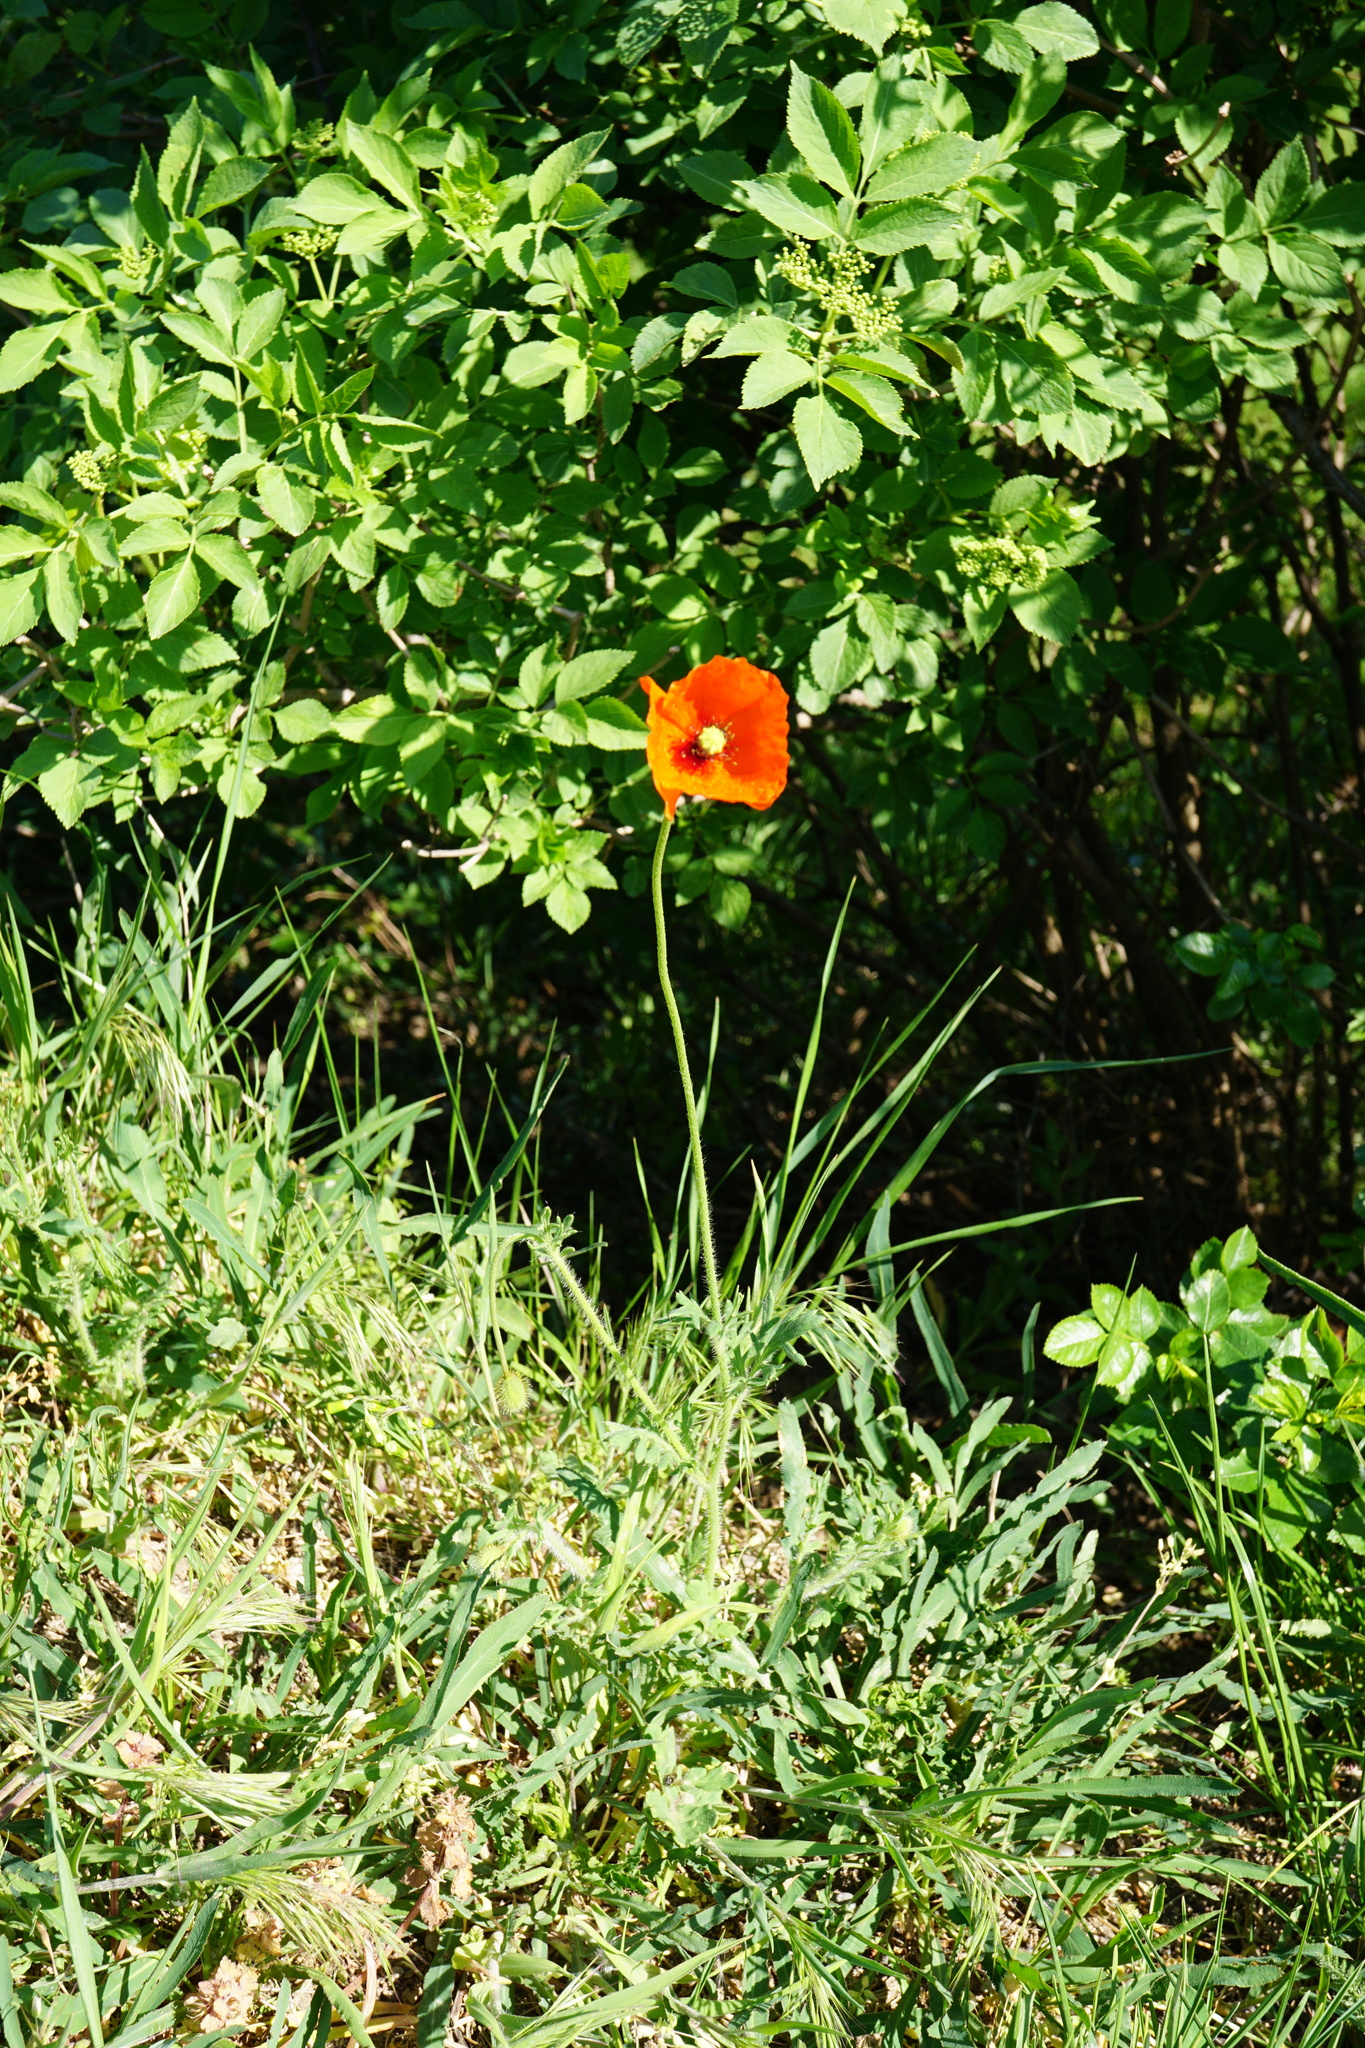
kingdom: Plantae
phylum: Tracheophyta
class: Magnoliopsida
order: Ranunculales
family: Papaveraceae
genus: Papaver
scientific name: Papaver dubium
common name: Long-headed poppy
